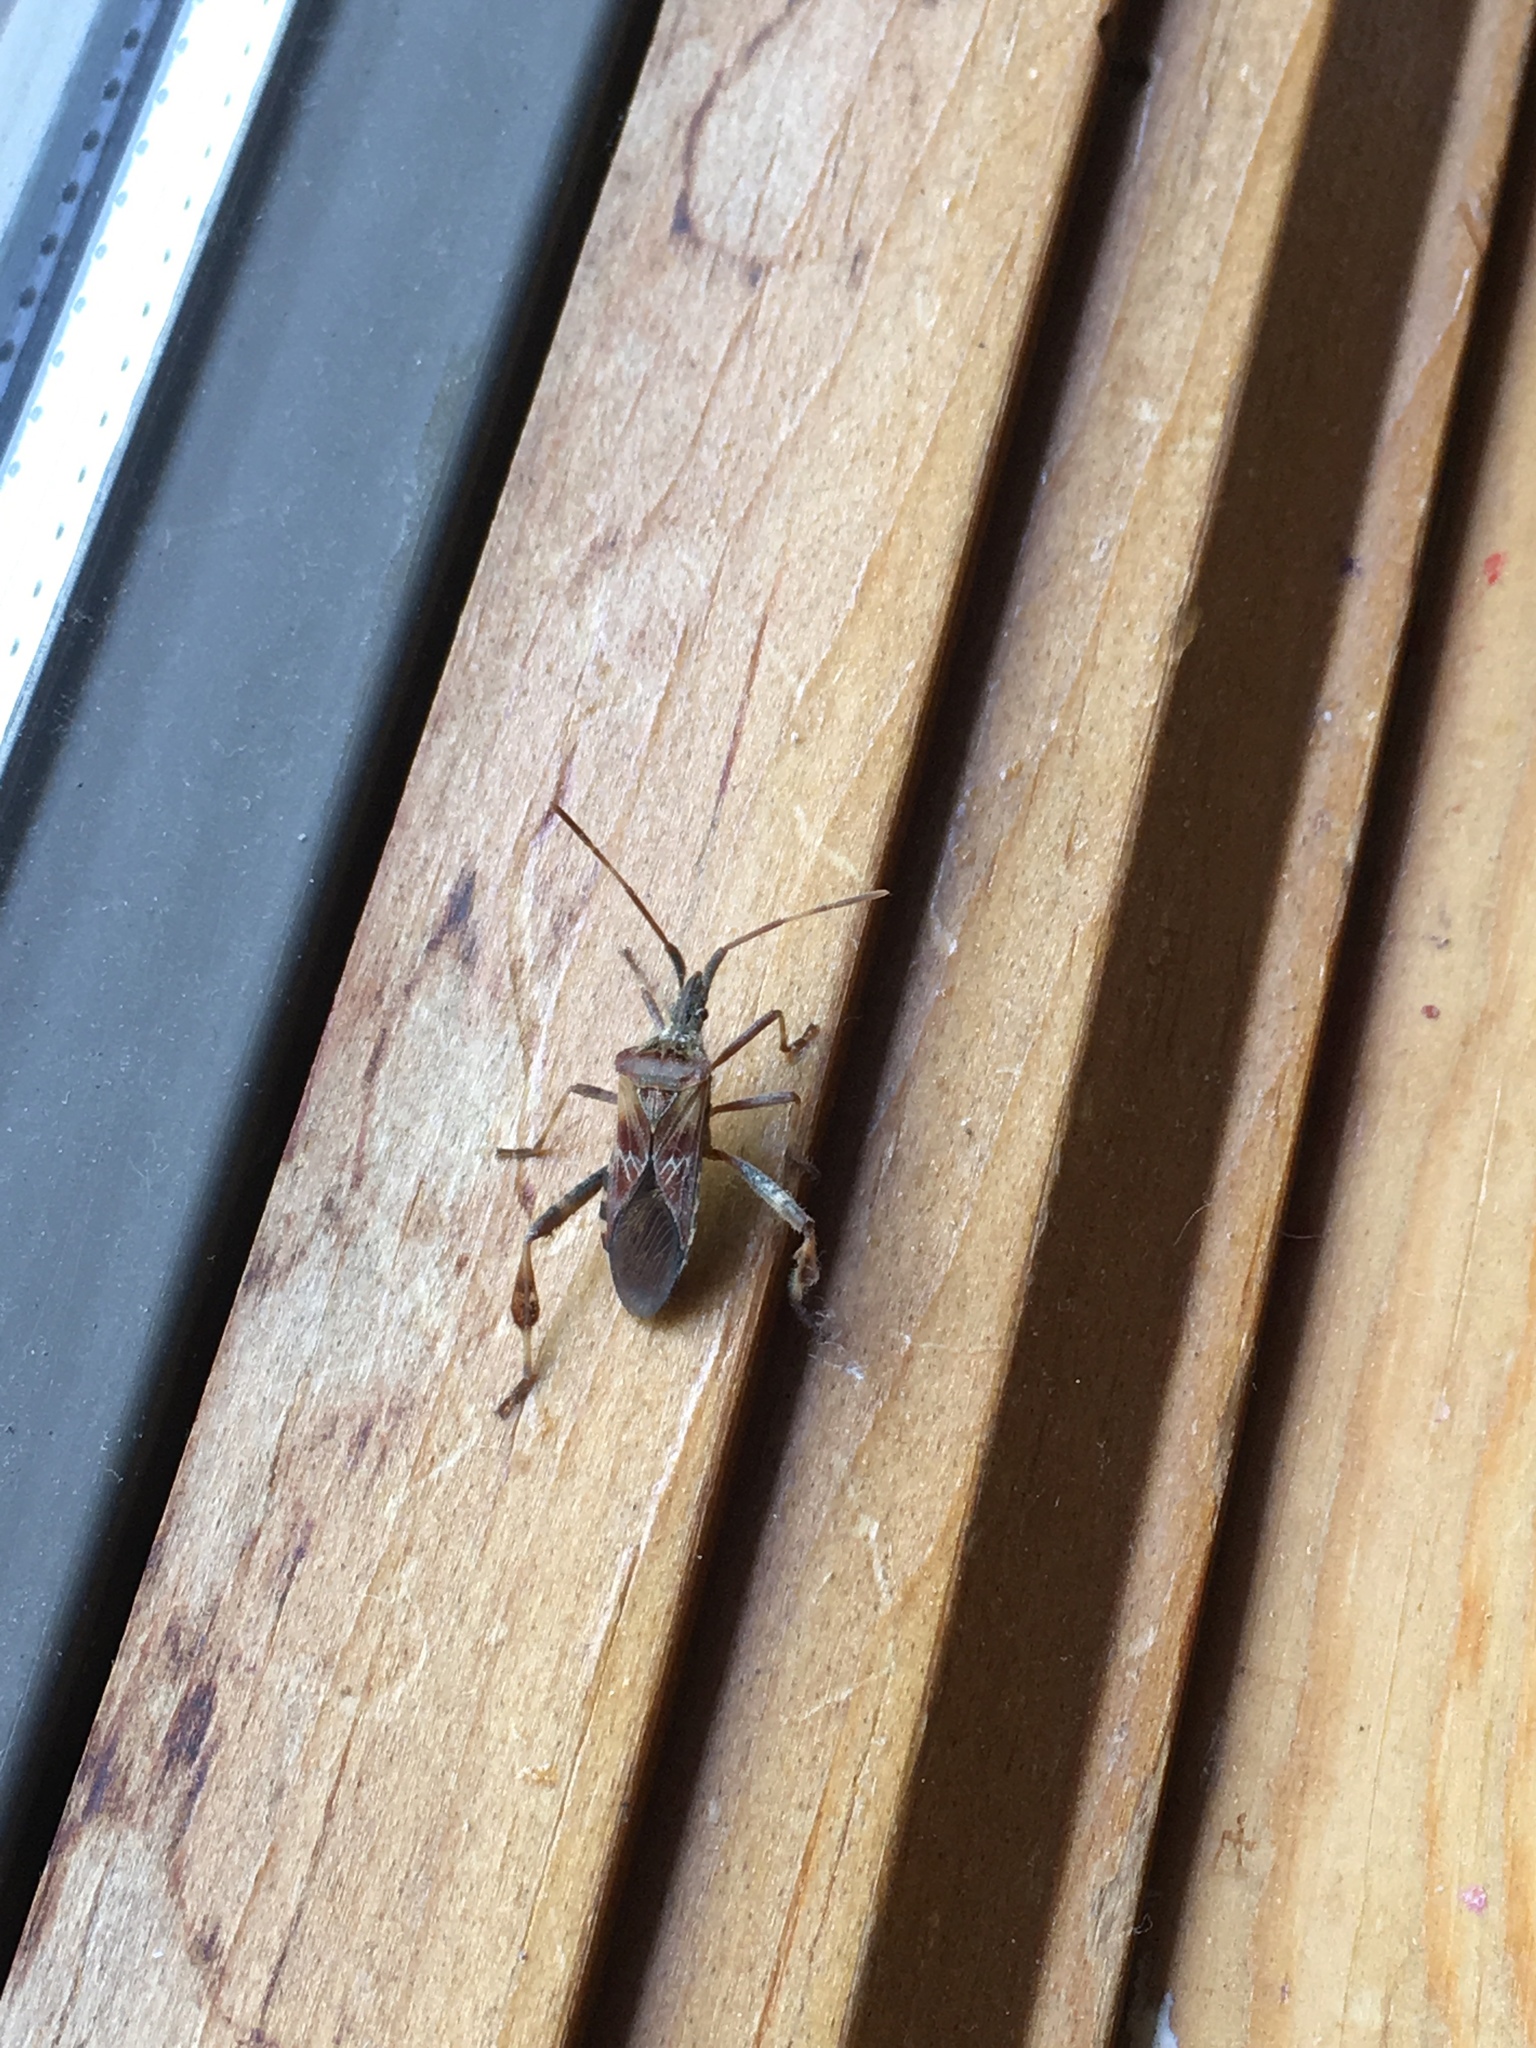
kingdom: Animalia
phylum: Arthropoda
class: Insecta
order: Hemiptera
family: Coreidae
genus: Leptoglossus
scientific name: Leptoglossus occidentalis
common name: Western conifer-seed bug
